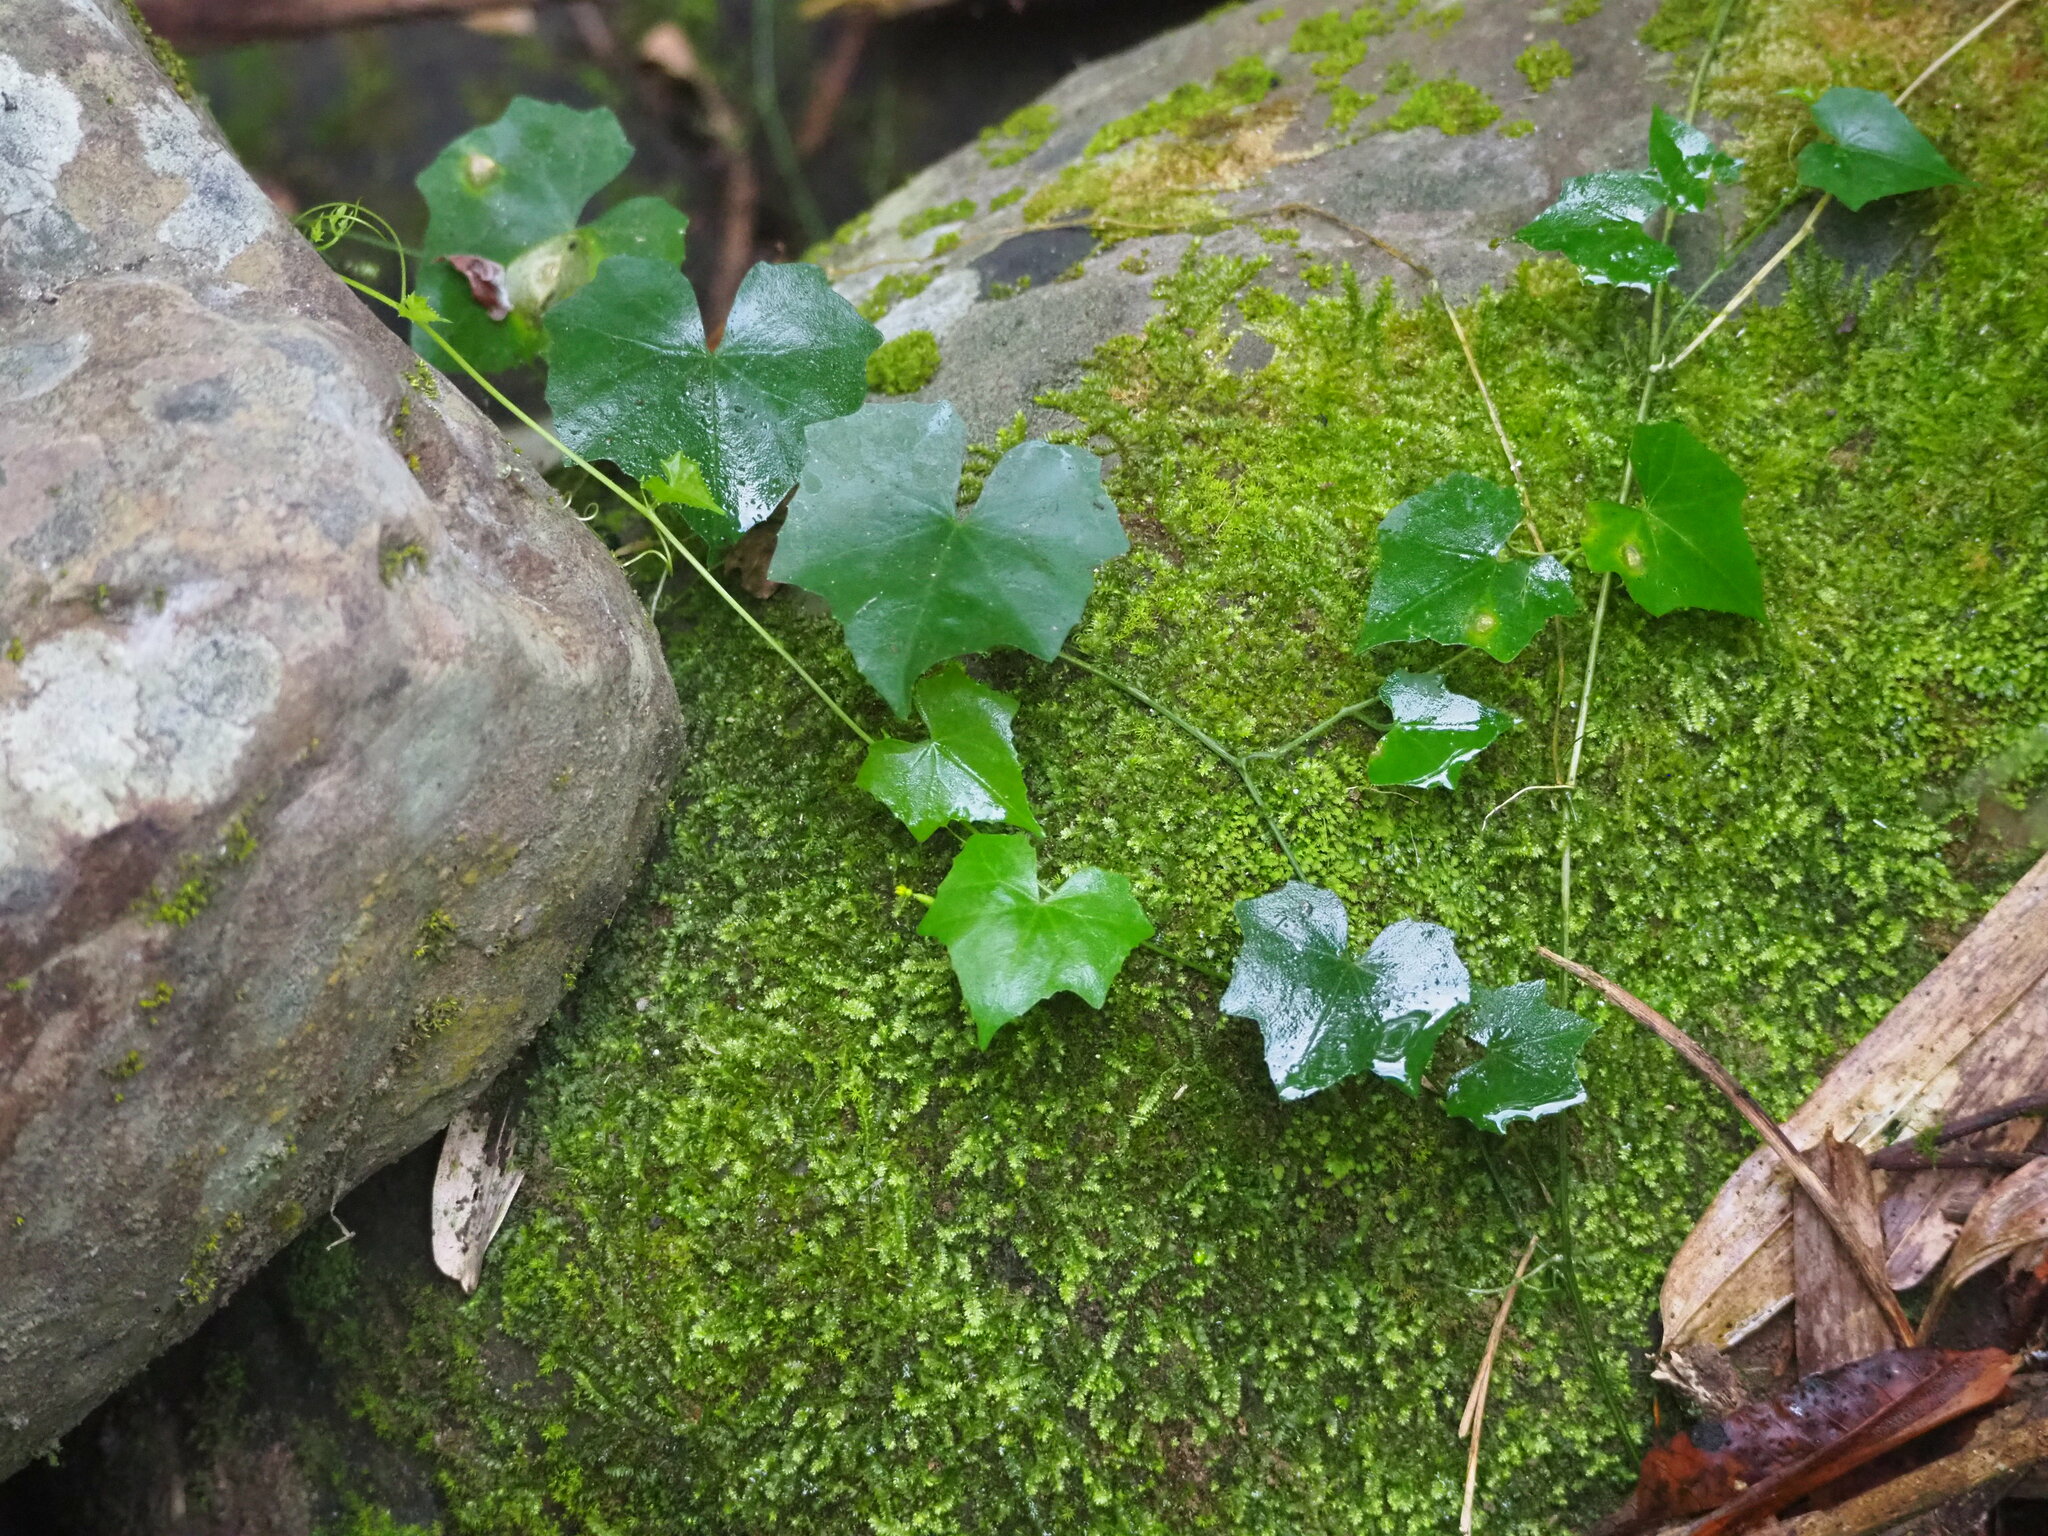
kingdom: Plantae
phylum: Tracheophyta
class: Magnoliopsida
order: Cucurbitales
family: Cucurbitaceae
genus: Melothria
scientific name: Melothria pendula
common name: Creeping-cucumber
